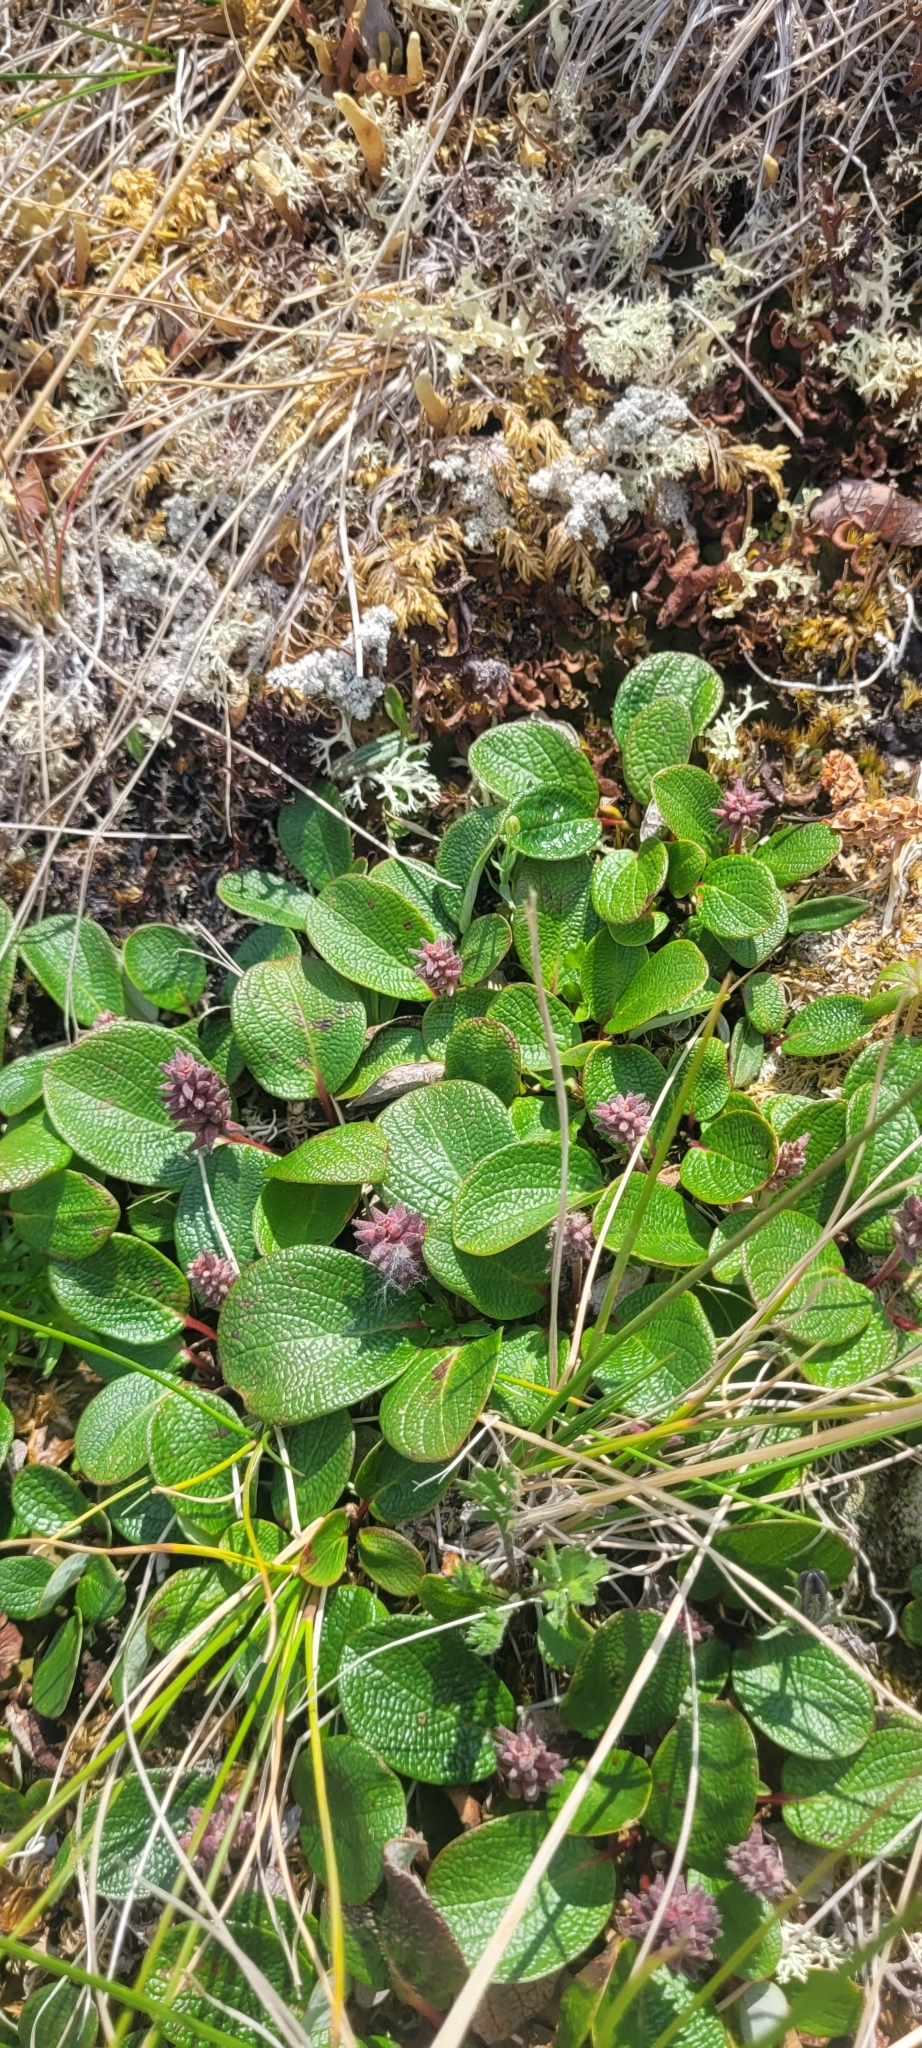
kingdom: Plantae
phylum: Tracheophyta
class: Magnoliopsida
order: Malpighiales
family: Salicaceae
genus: Salix
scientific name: Salix reticulata
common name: Net-leaved willow
